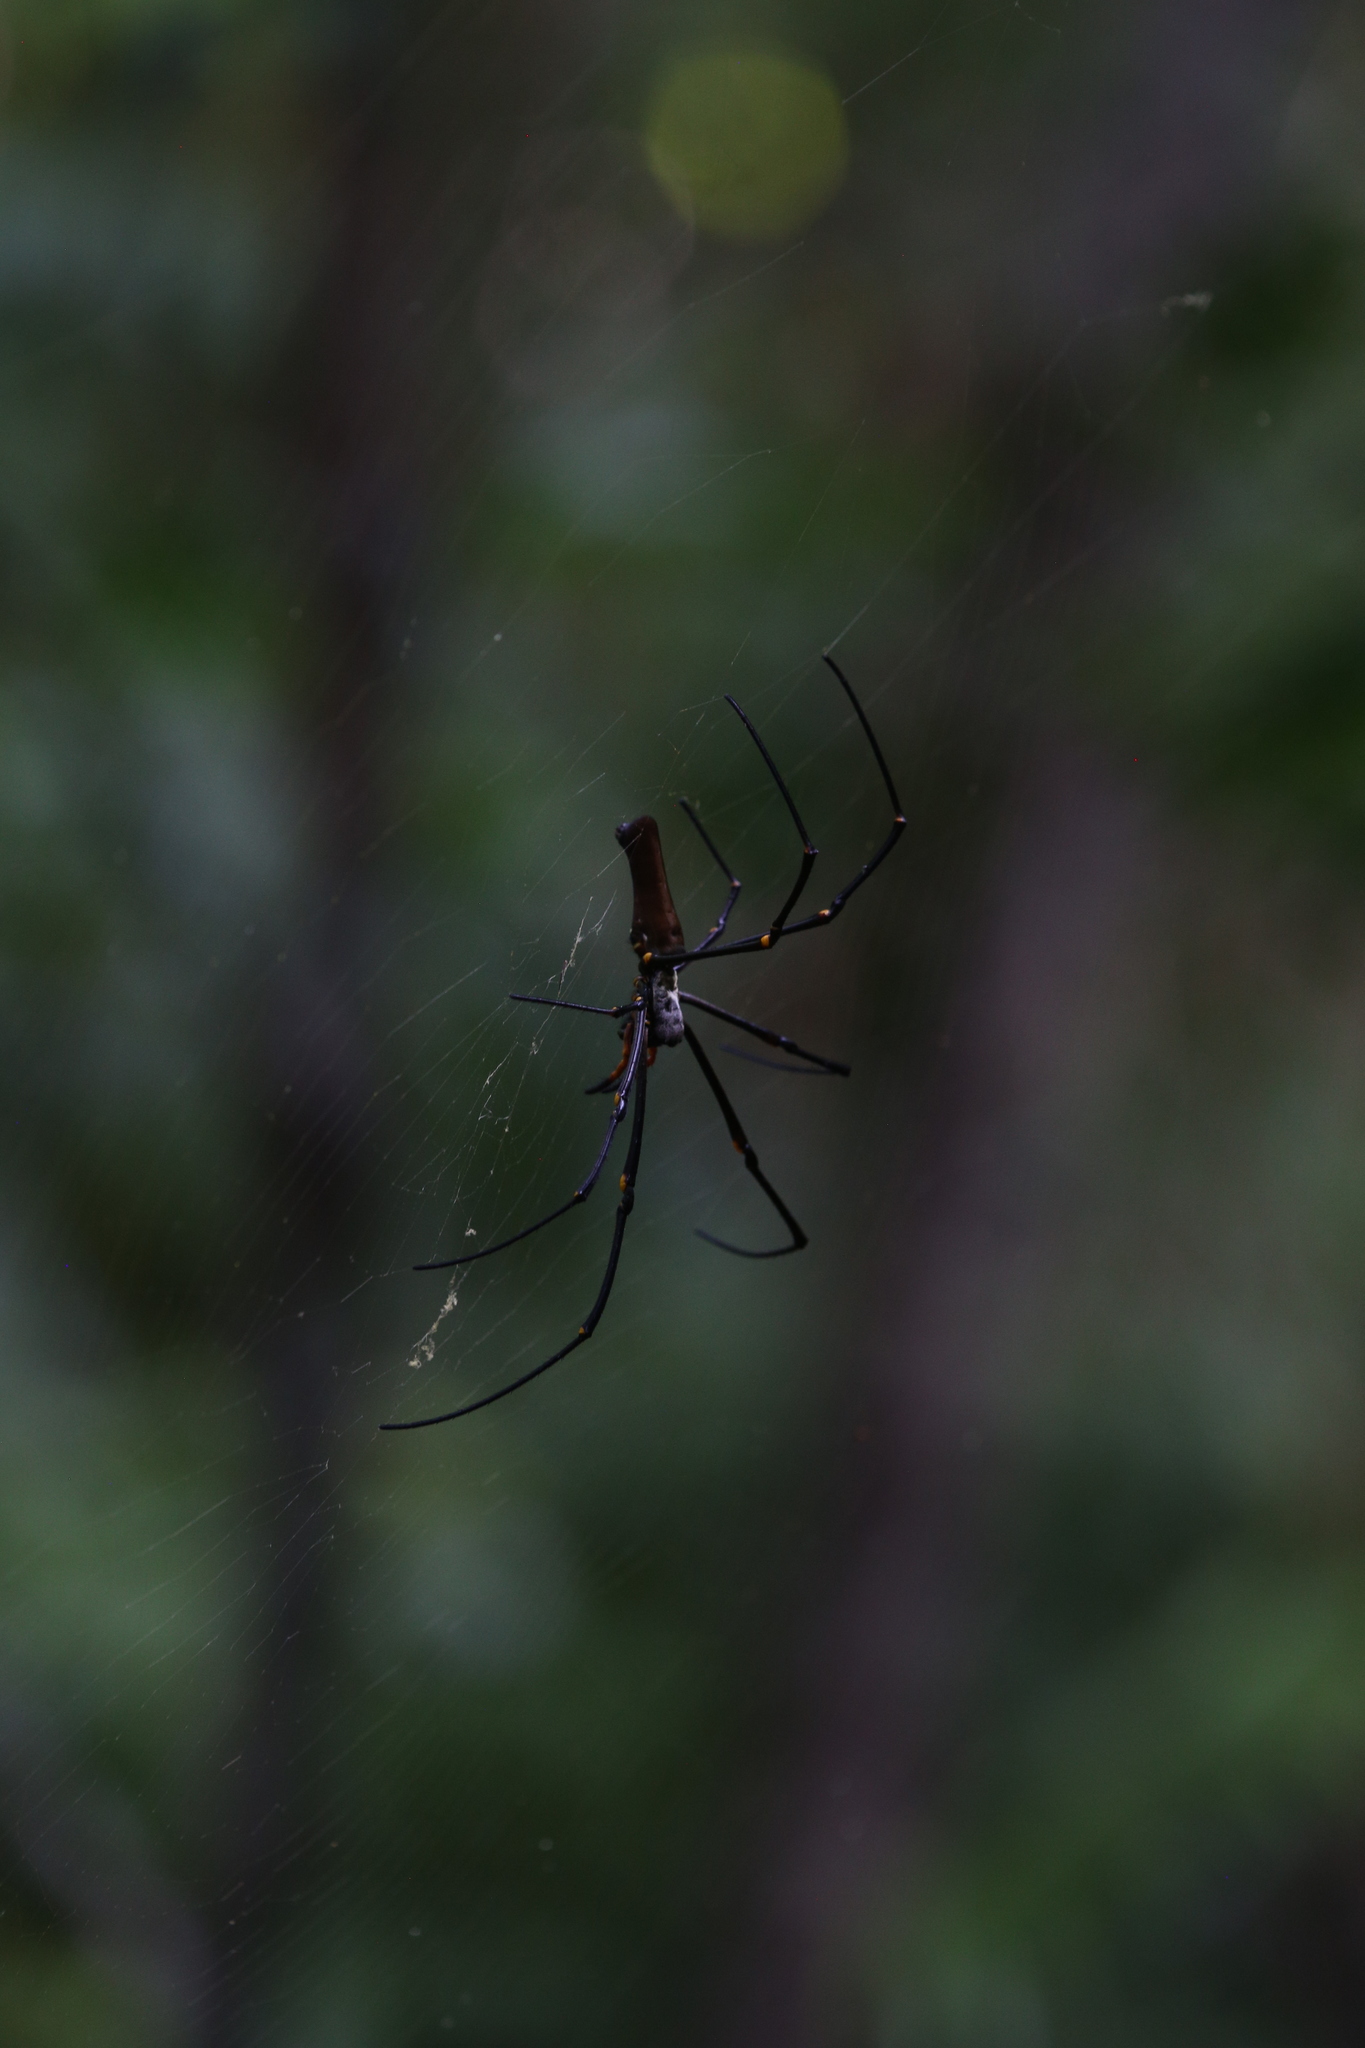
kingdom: Animalia
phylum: Arthropoda
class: Arachnida
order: Araneae
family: Araneidae
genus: Nephila
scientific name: Nephila pilipes
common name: Giant golden orb weaver
